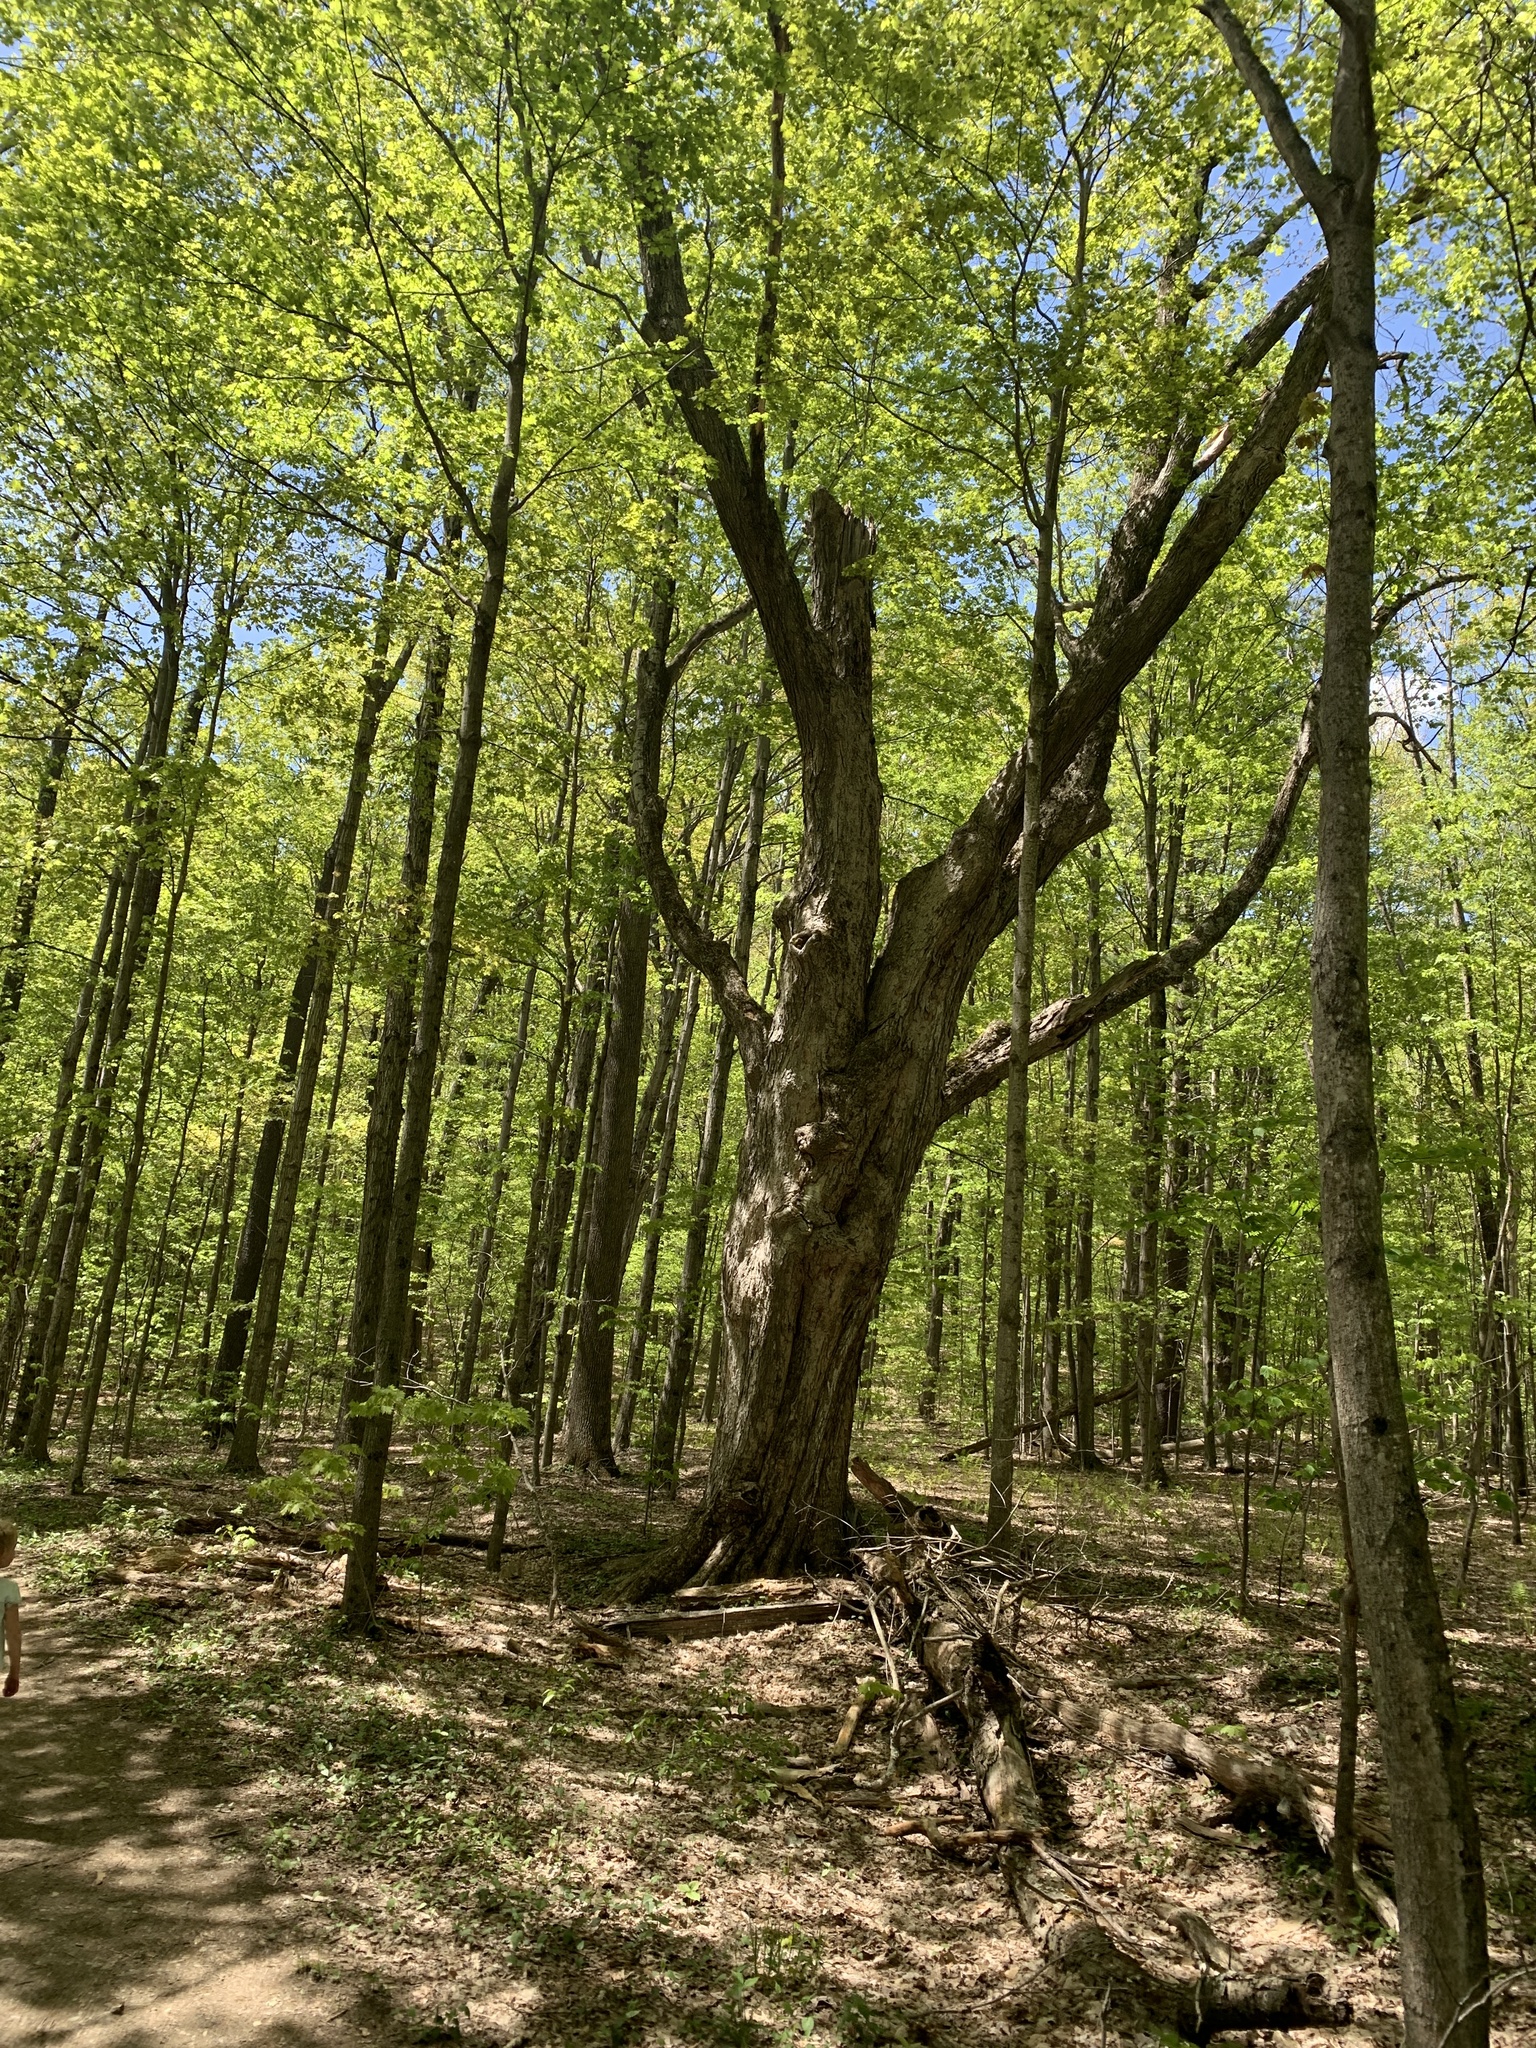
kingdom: Plantae
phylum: Tracheophyta
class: Magnoliopsida
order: Sapindales
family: Sapindaceae
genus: Acer
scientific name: Acer saccharum
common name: Sugar maple
